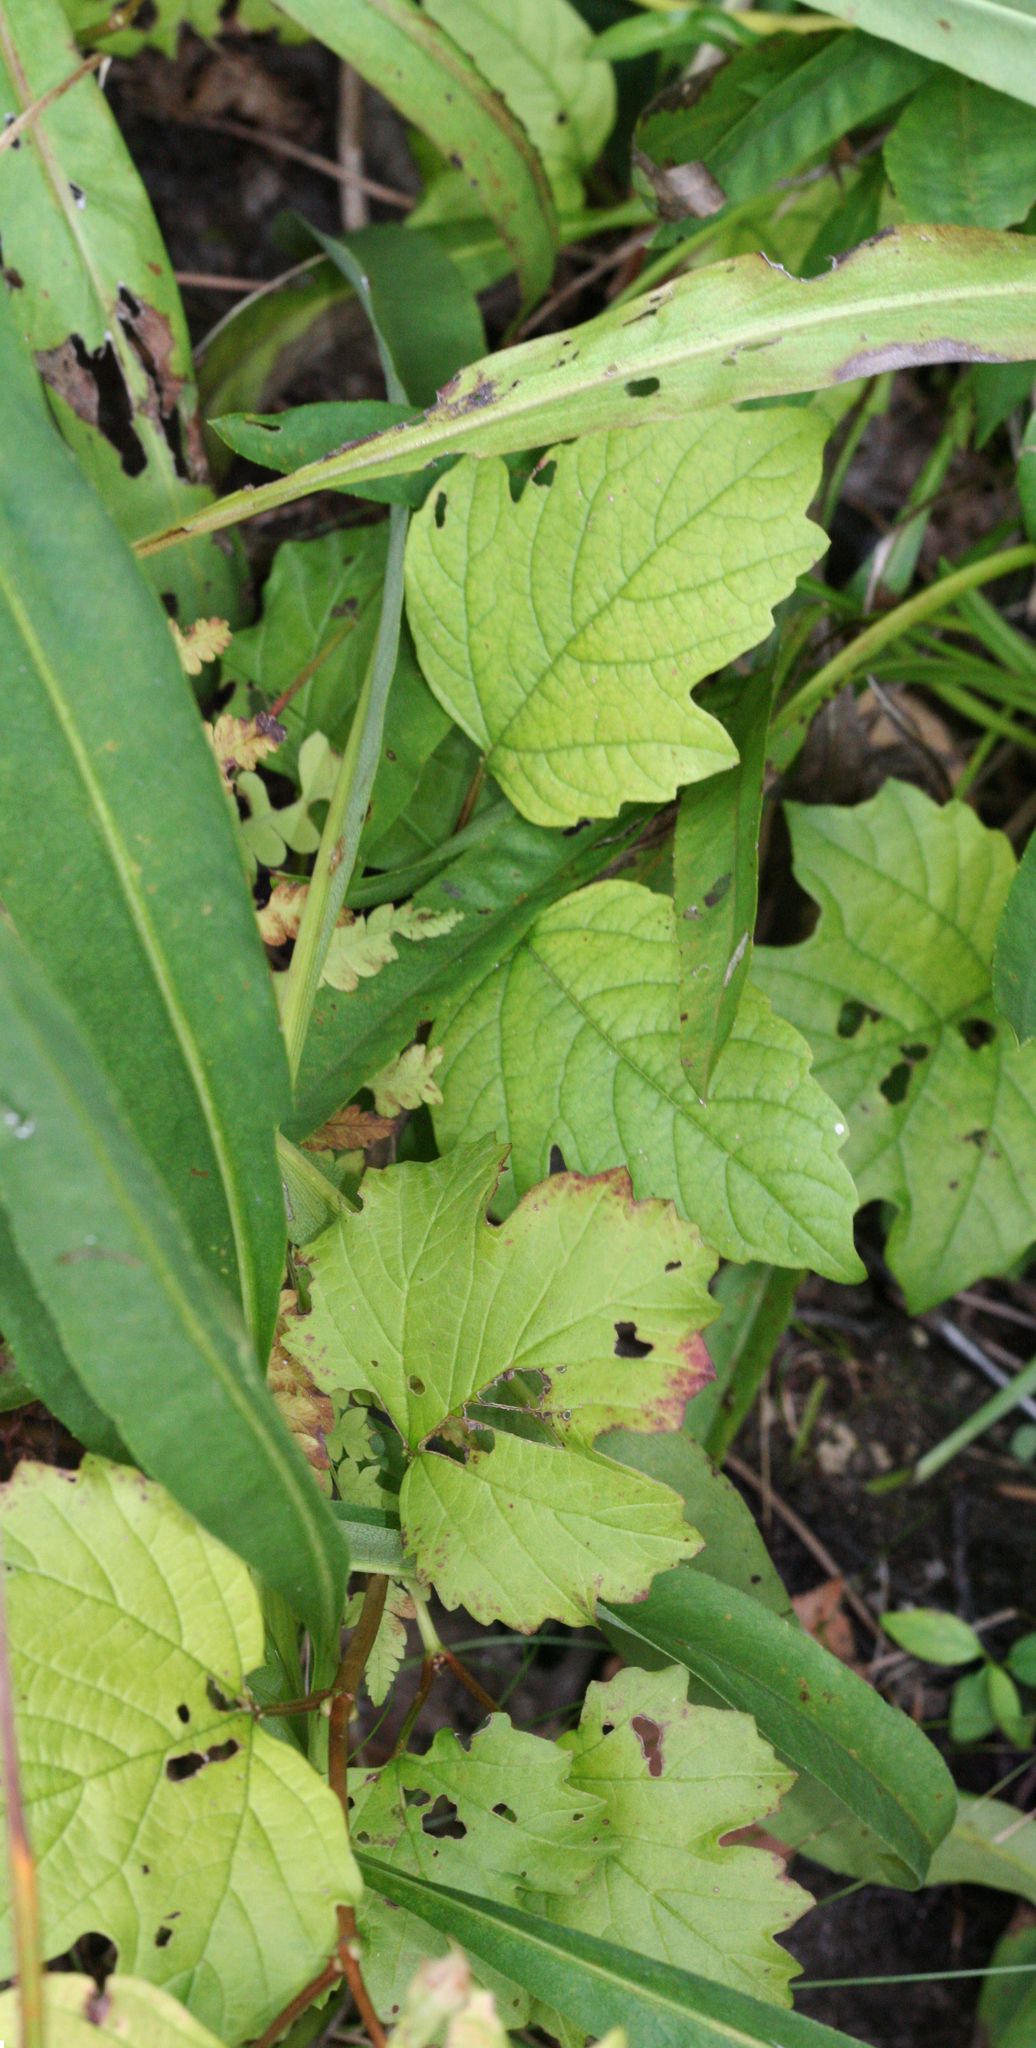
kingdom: Plantae
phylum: Tracheophyta
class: Magnoliopsida
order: Dipsacales
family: Viburnaceae
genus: Viburnum
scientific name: Viburnum opulus
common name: Guelder-rose
